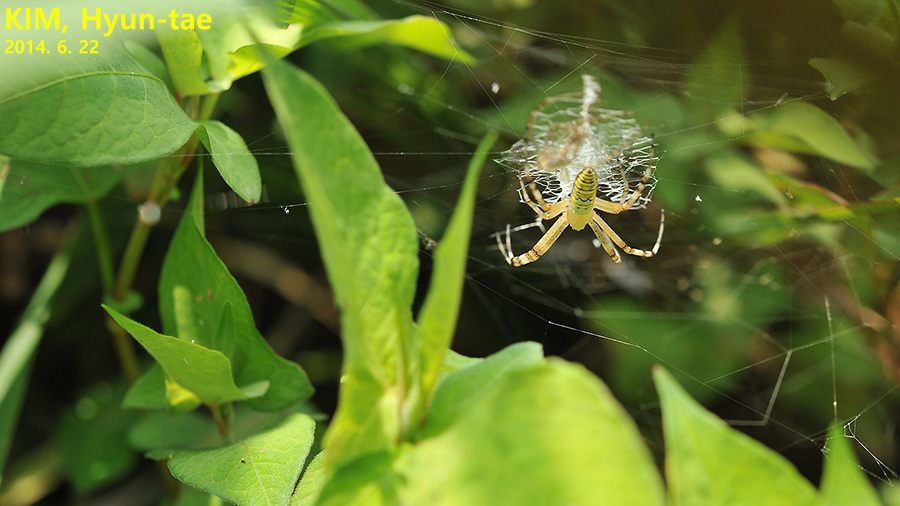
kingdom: Animalia
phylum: Arthropoda
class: Arachnida
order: Araneae
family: Araneidae
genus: Argiope
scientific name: Argiope bruennichi
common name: Wasp spider
